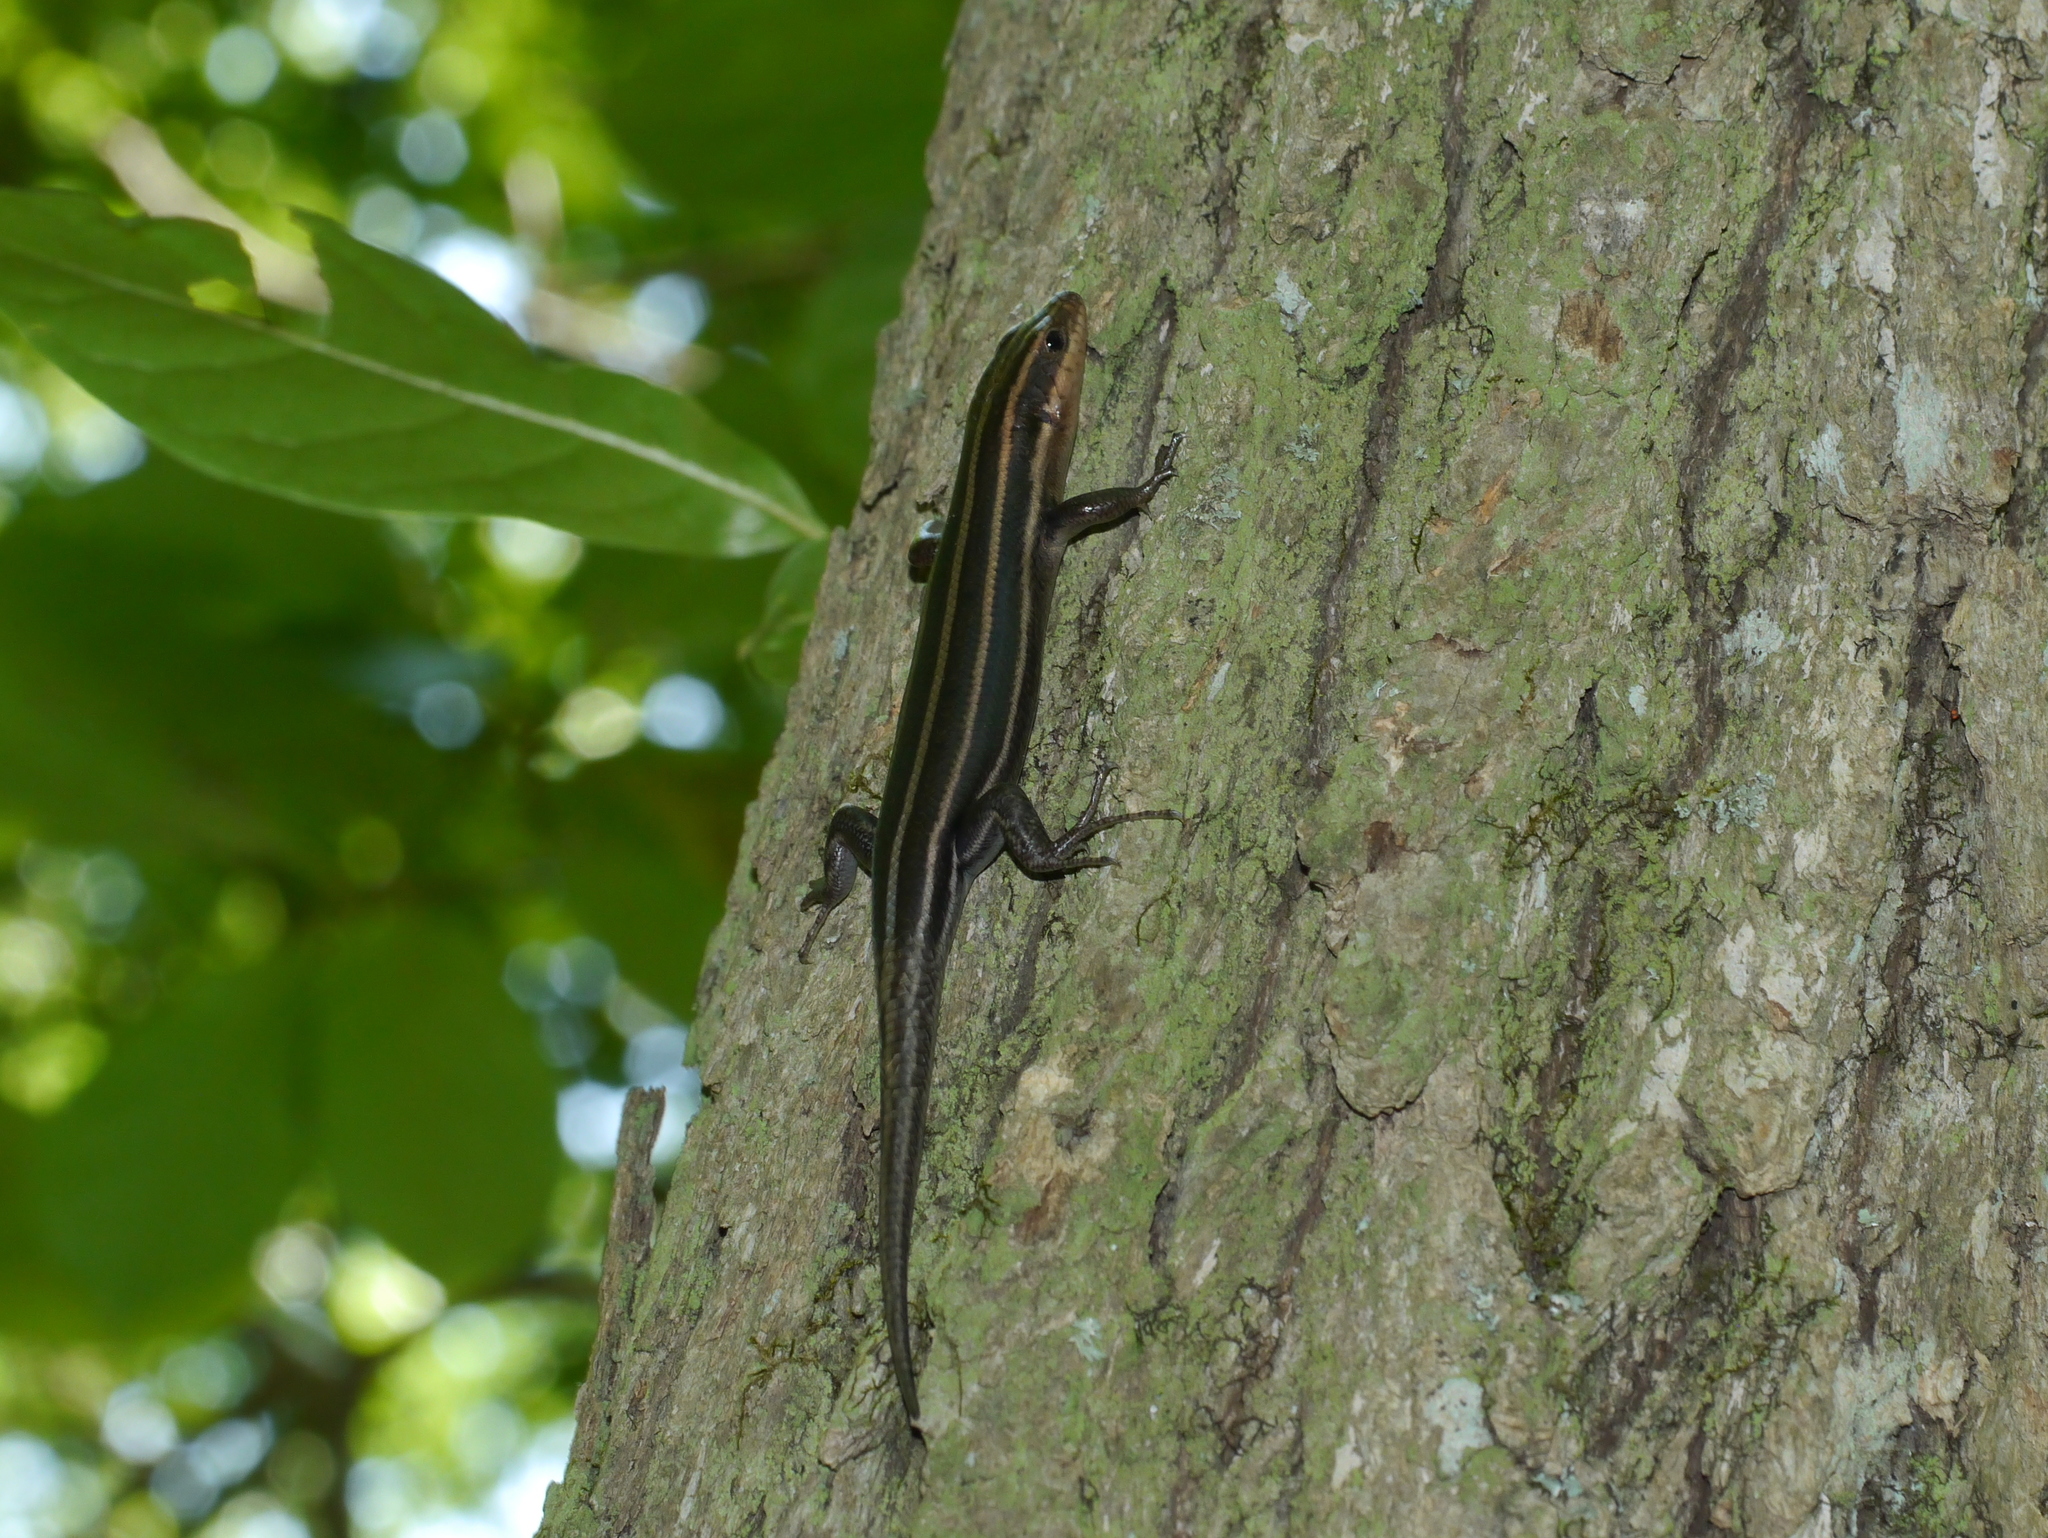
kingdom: Animalia
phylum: Chordata
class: Squamata
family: Scincidae
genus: Plestiodon
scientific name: Plestiodon fasciatus
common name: Five-lined skink
